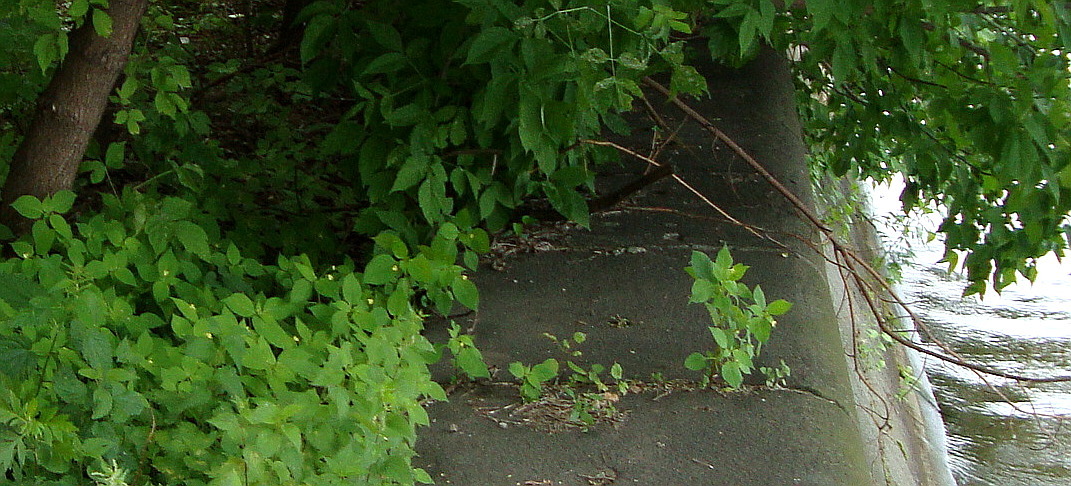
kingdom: Plantae
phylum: Tracheophyta
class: Magnoliopsida
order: Ericales
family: Balsaminaceae
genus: Impatiens
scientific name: Impatiens parviflora
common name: Small balsam
